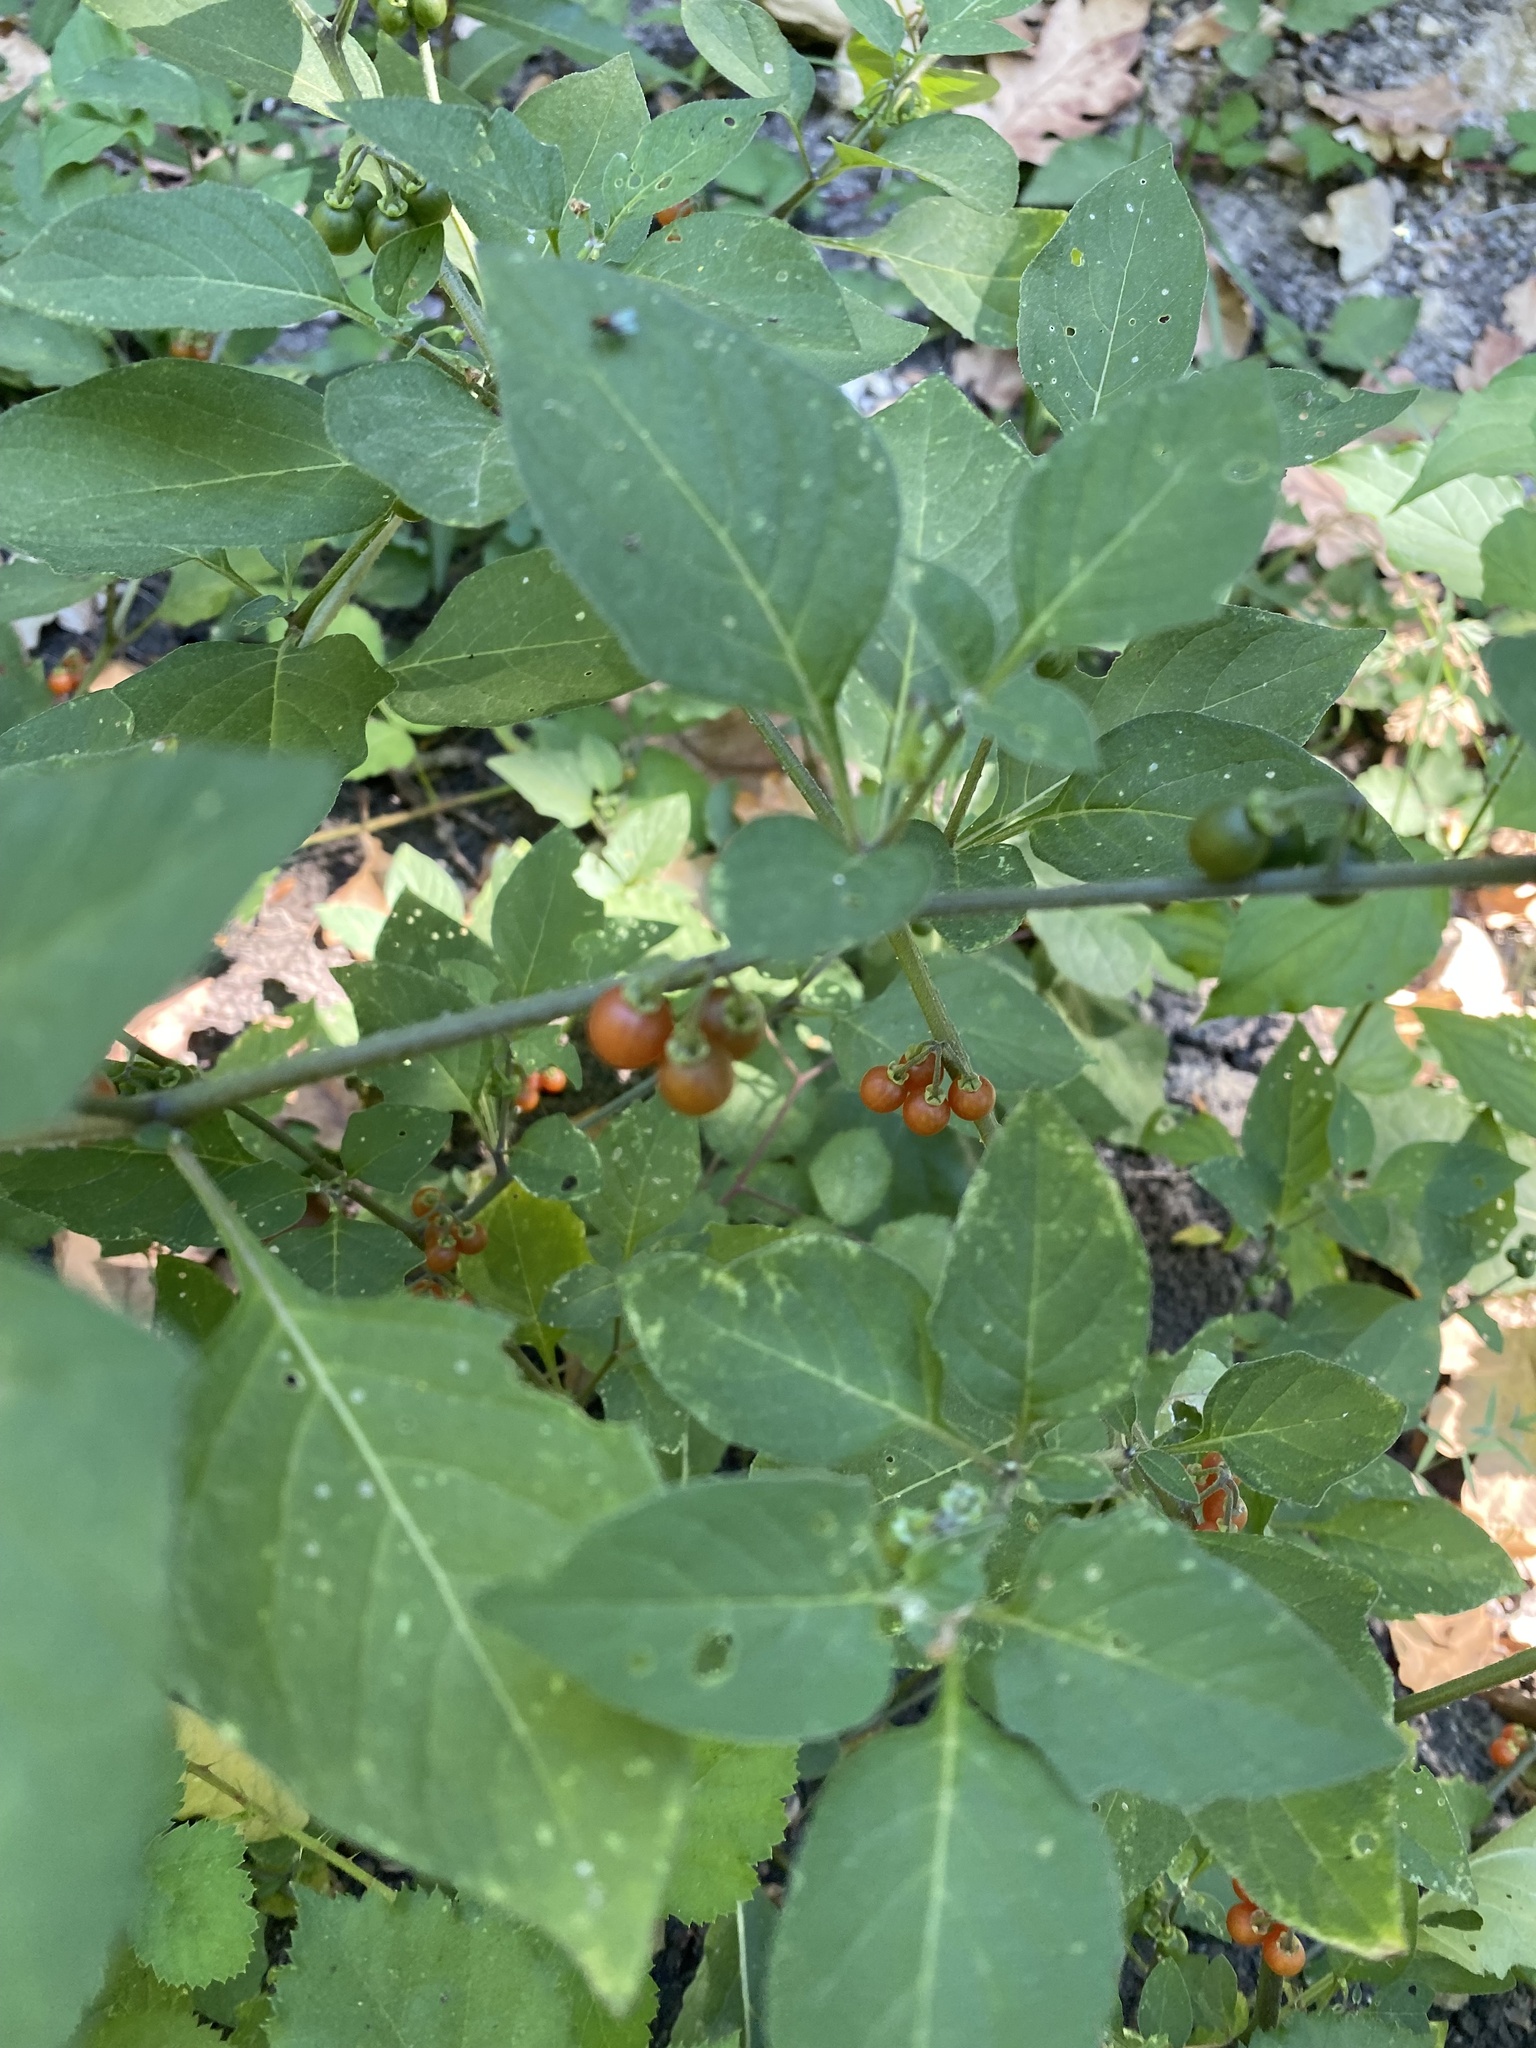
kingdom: Plantae
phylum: Tracheophyta
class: Magnoliopsida
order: Solanales
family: Solanaceae
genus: Solanum
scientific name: Solanum villosum
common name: Red nightshade
